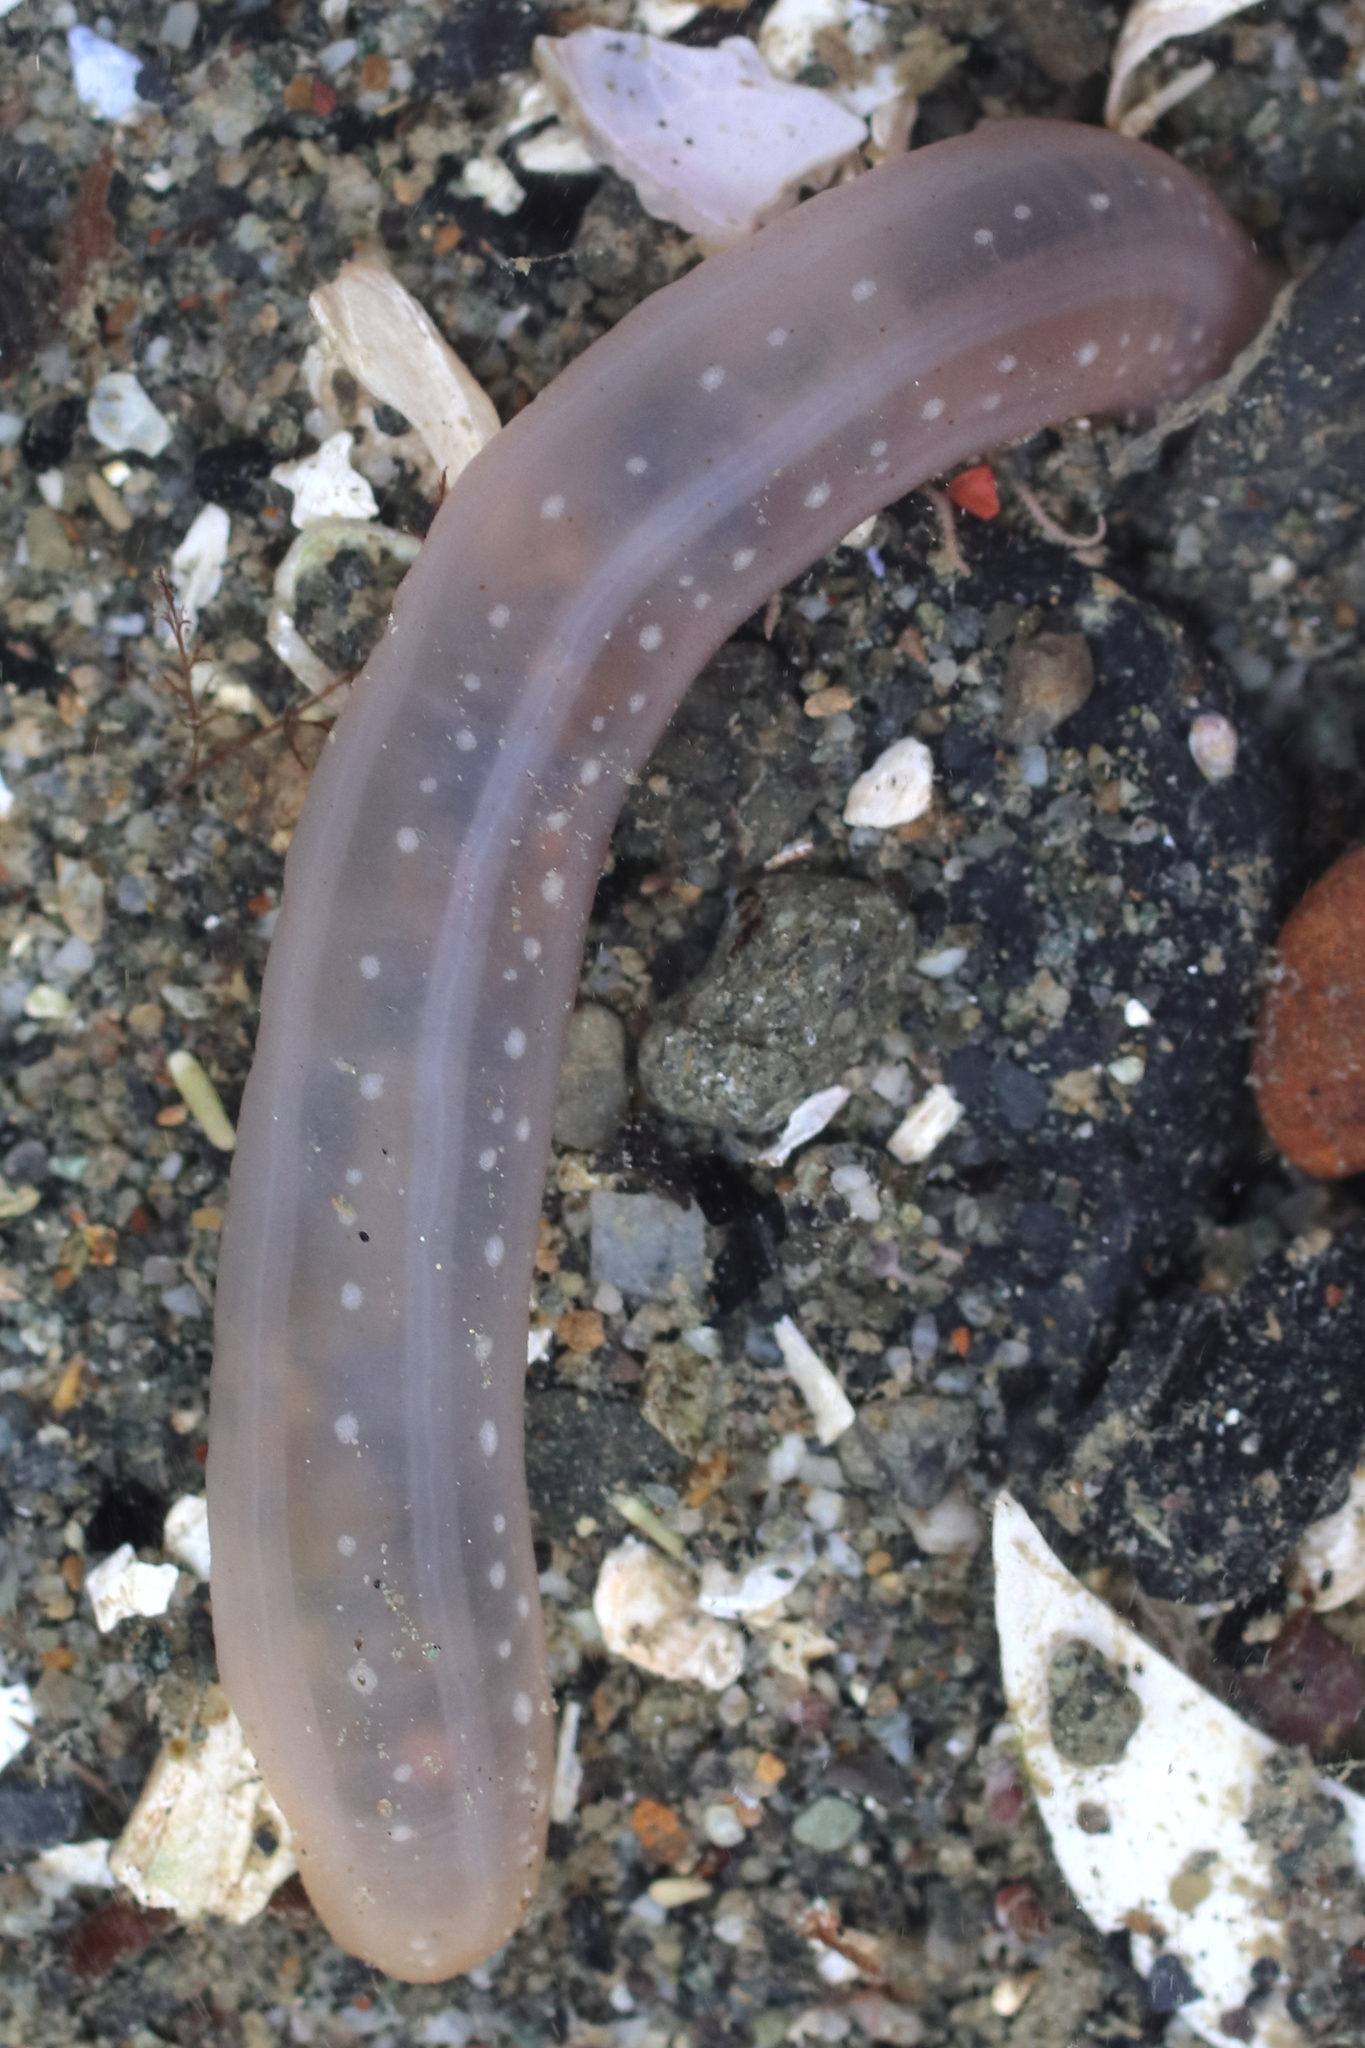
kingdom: Animalia
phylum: Echinodermata
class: Holothuroidea
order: Apodida
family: Chiridotidae
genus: Chiridota
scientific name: Chiridota discolor
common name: Jellybean footless sea cucumber
